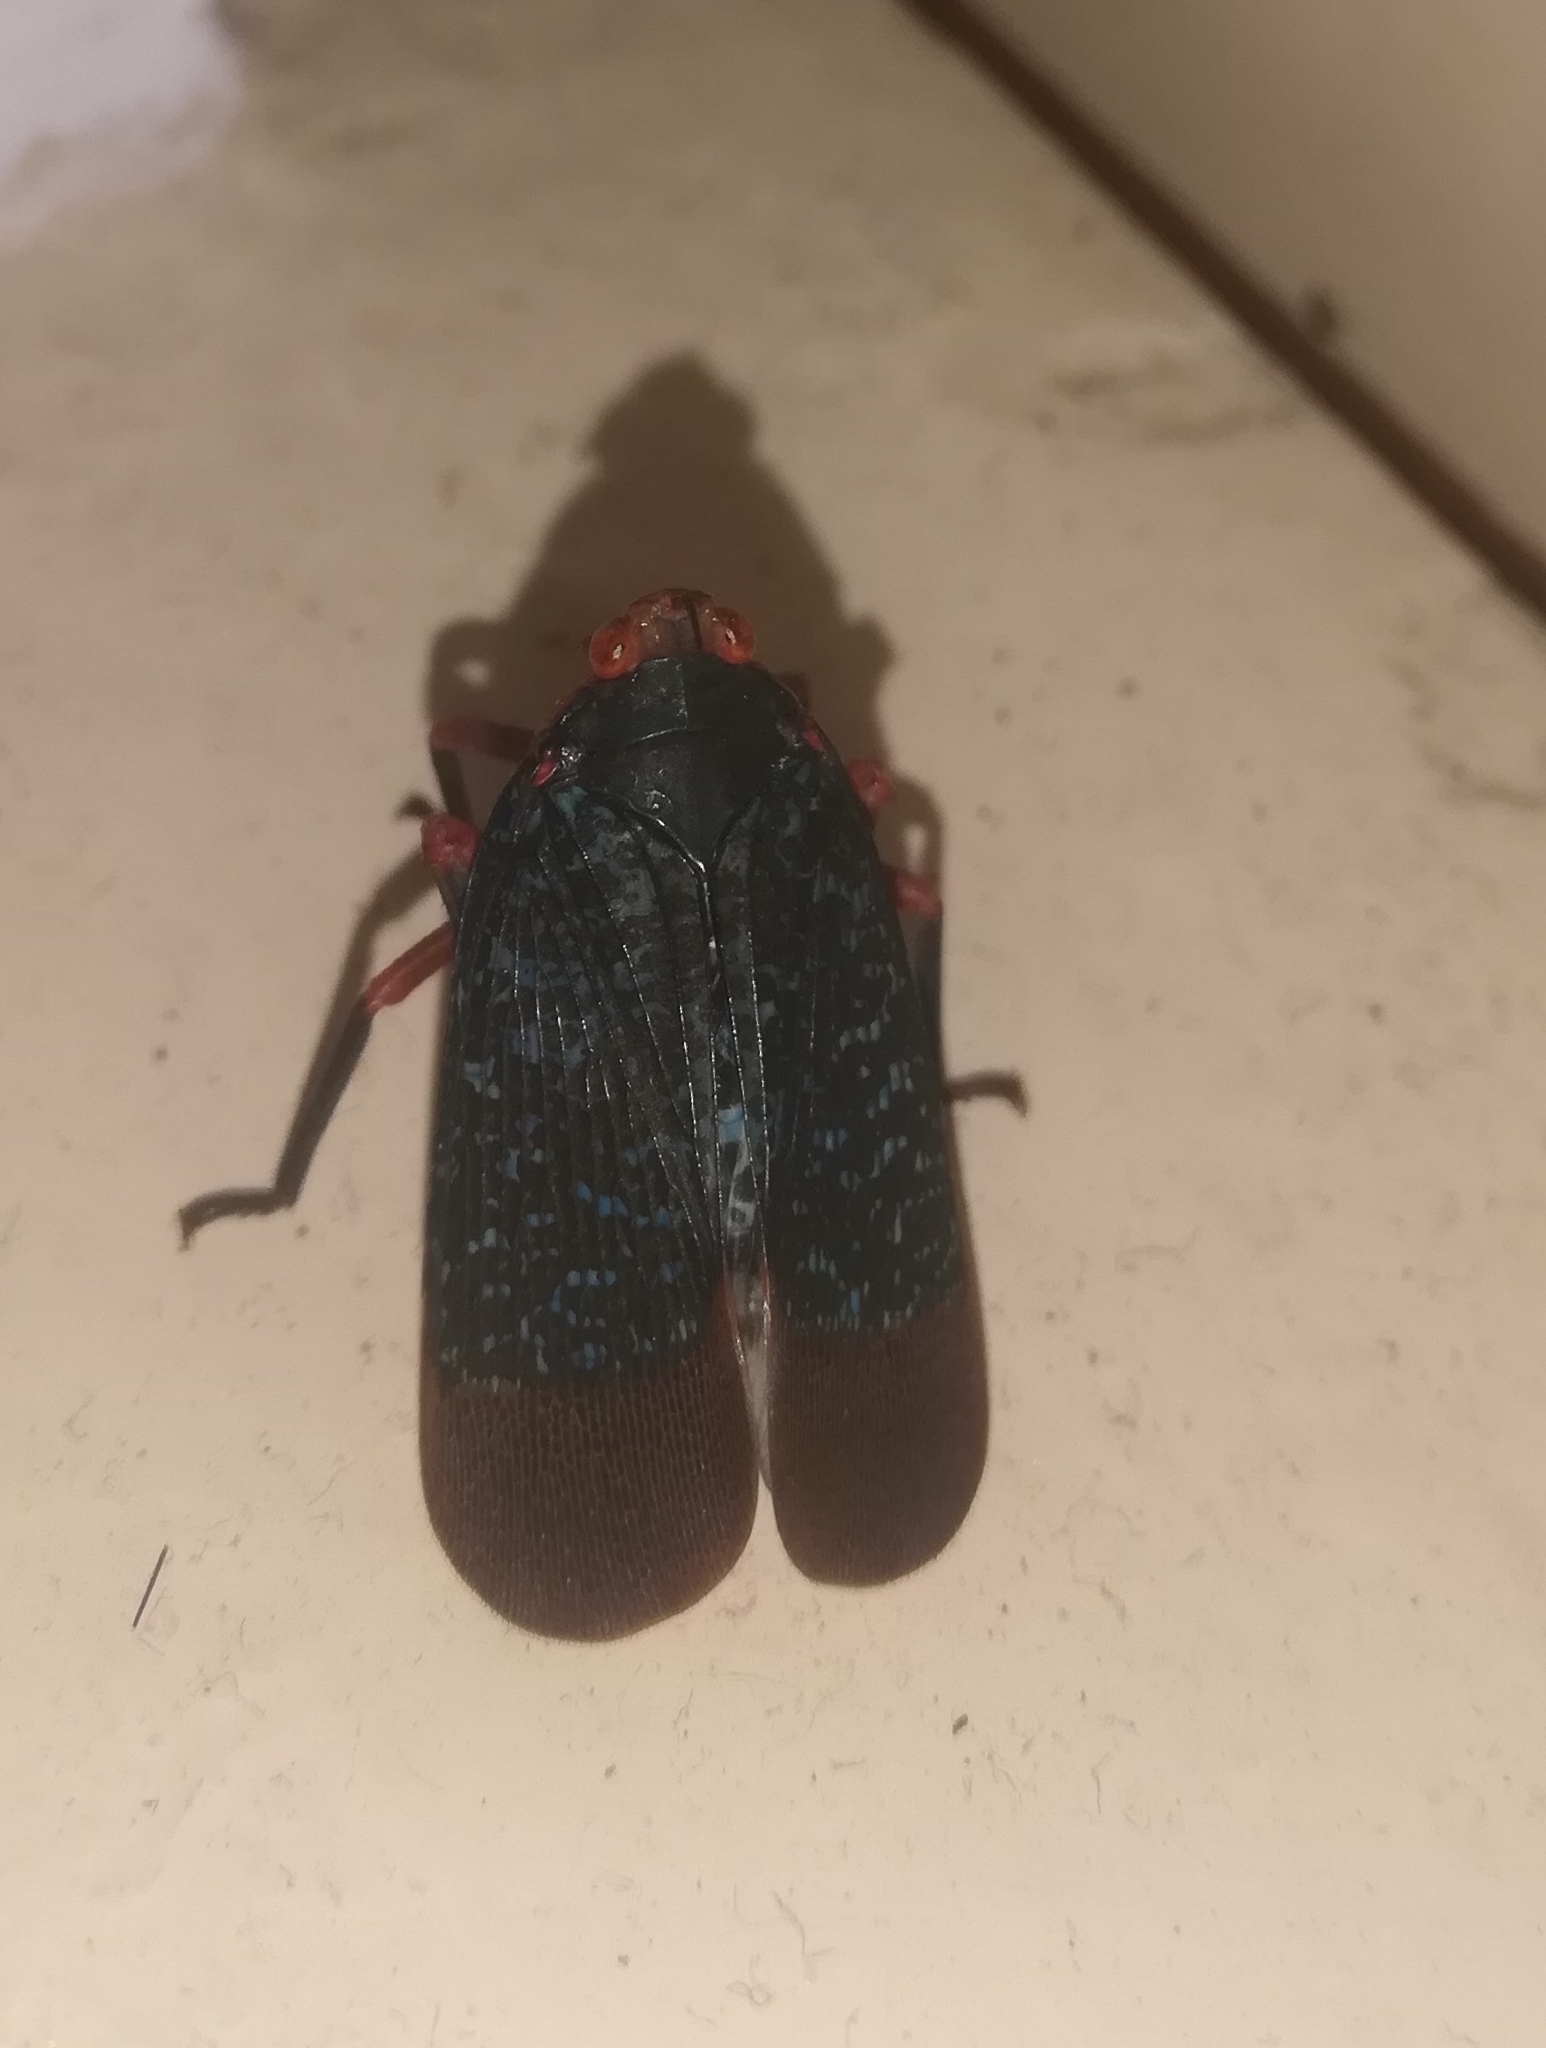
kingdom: Animalia
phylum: Arthropoda
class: Insecta
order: Hemiptera
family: Fulgoridae
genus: Kalidasa
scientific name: Kalidasa lanata
